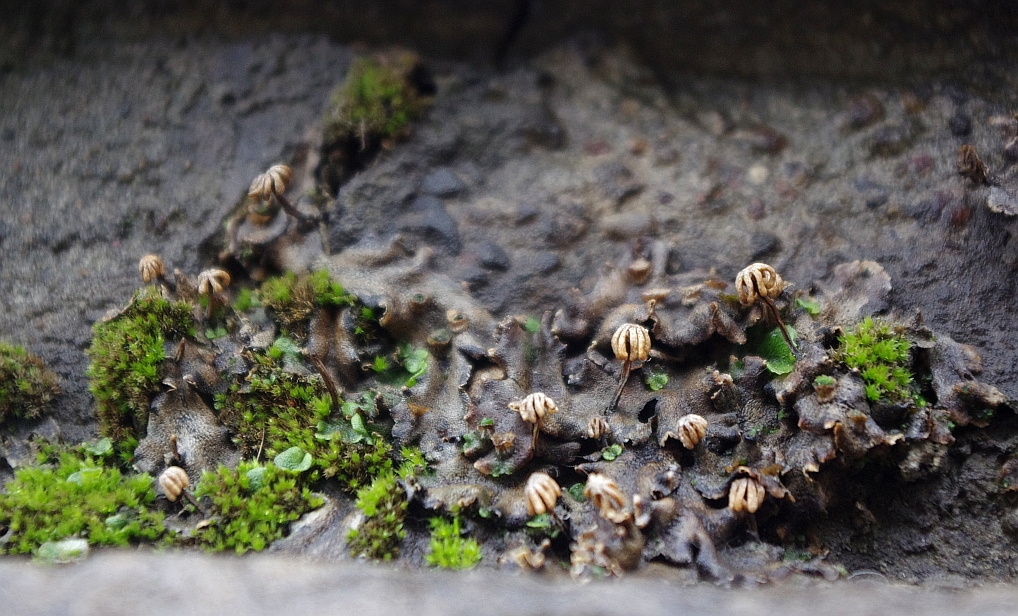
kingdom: Plantae
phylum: Marchantiophyta
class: Marchantiopsida
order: Marchantiales
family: Marchantiaceae
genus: Marchantia
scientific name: Marchantia polymorpha
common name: Common liverwort
